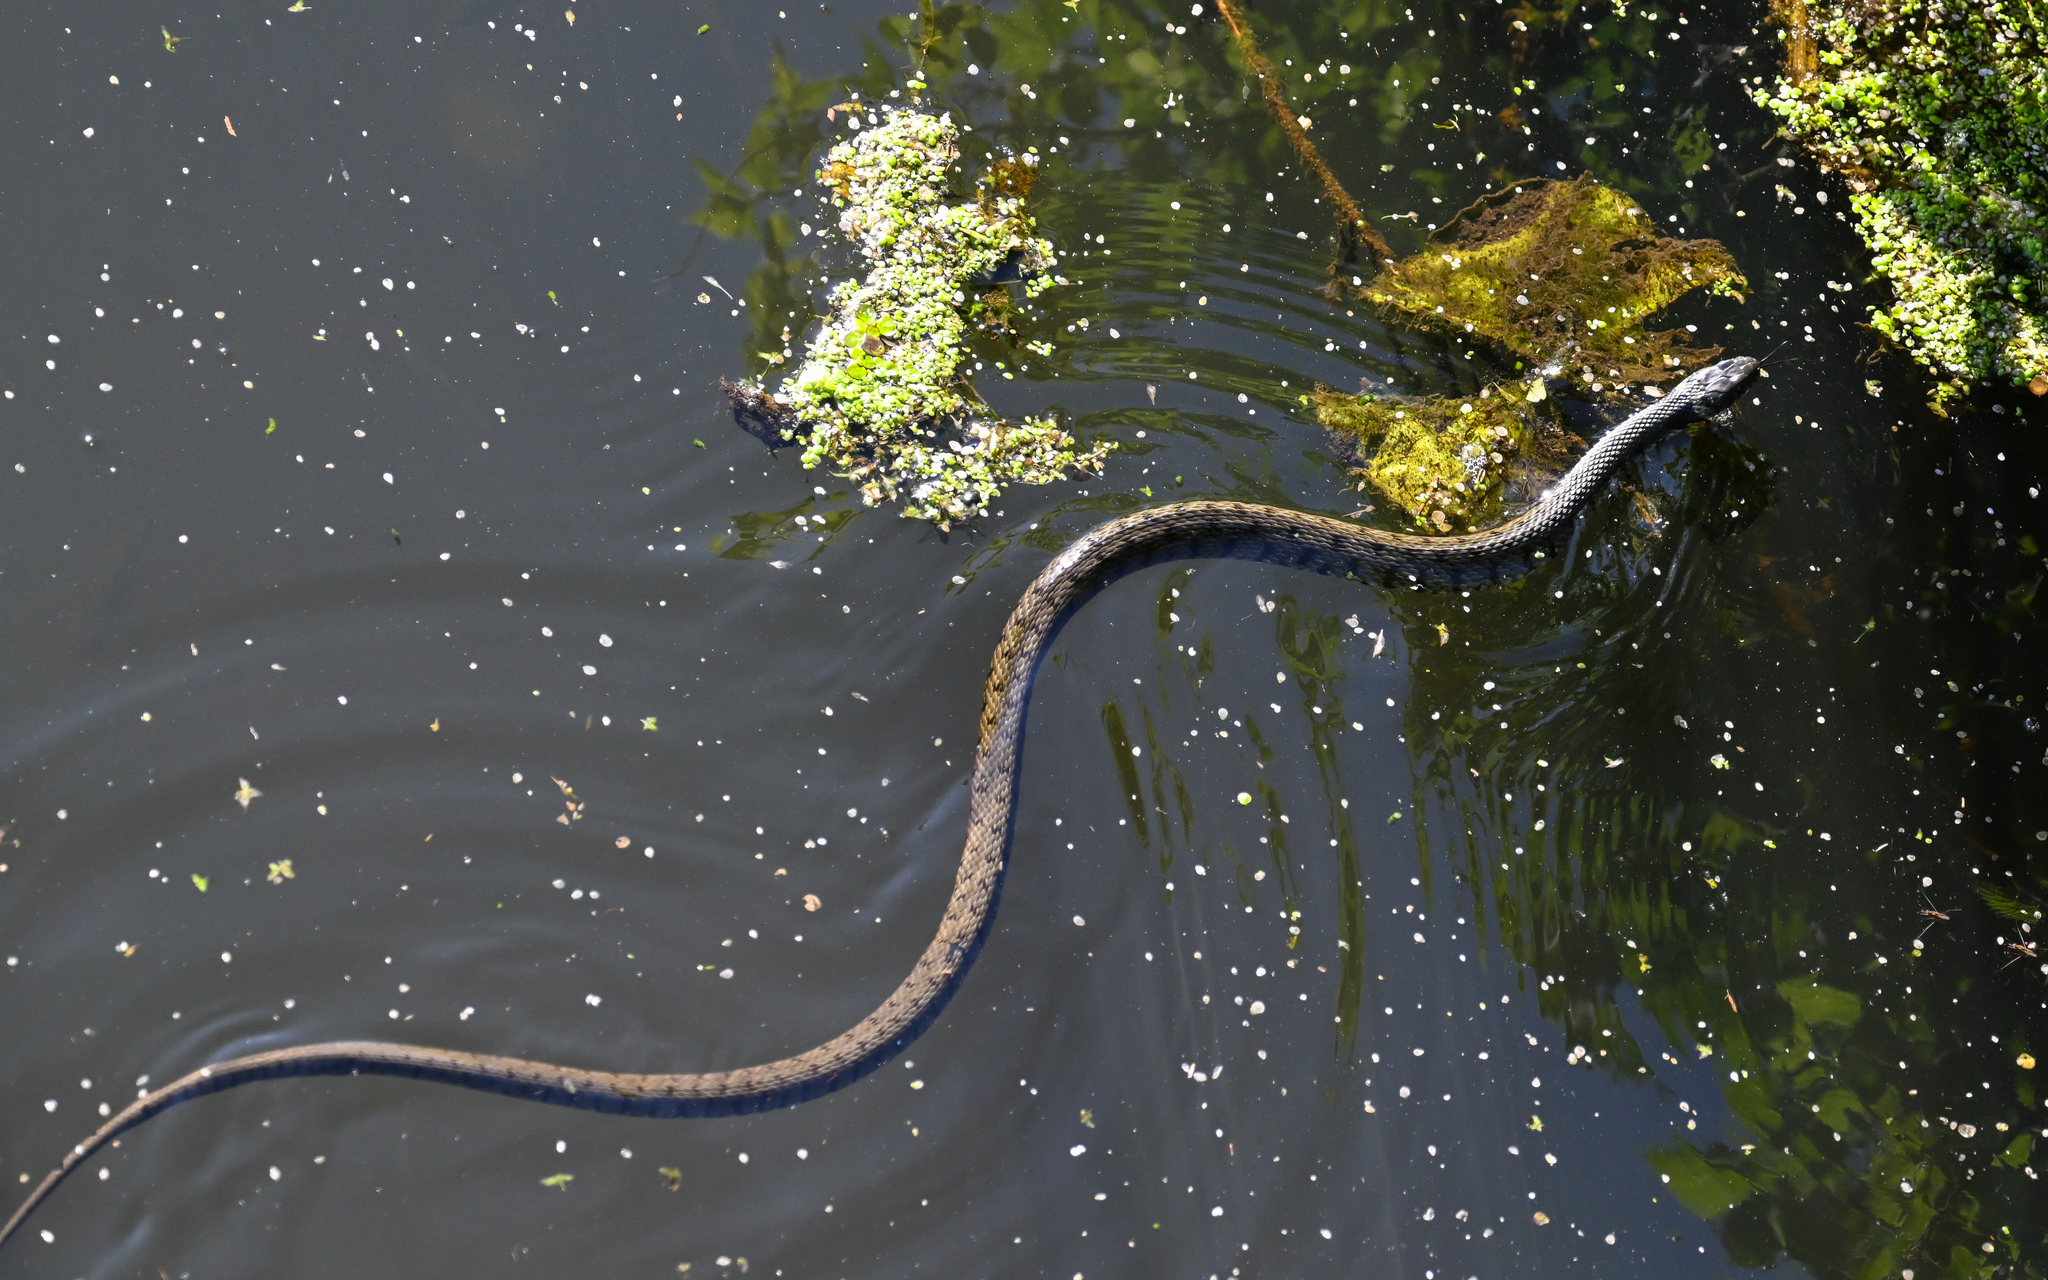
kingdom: Animalia
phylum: Chordata
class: Squamata
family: Colubridae
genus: Natrix
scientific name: Natrix helvetica
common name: Banded grass snake
